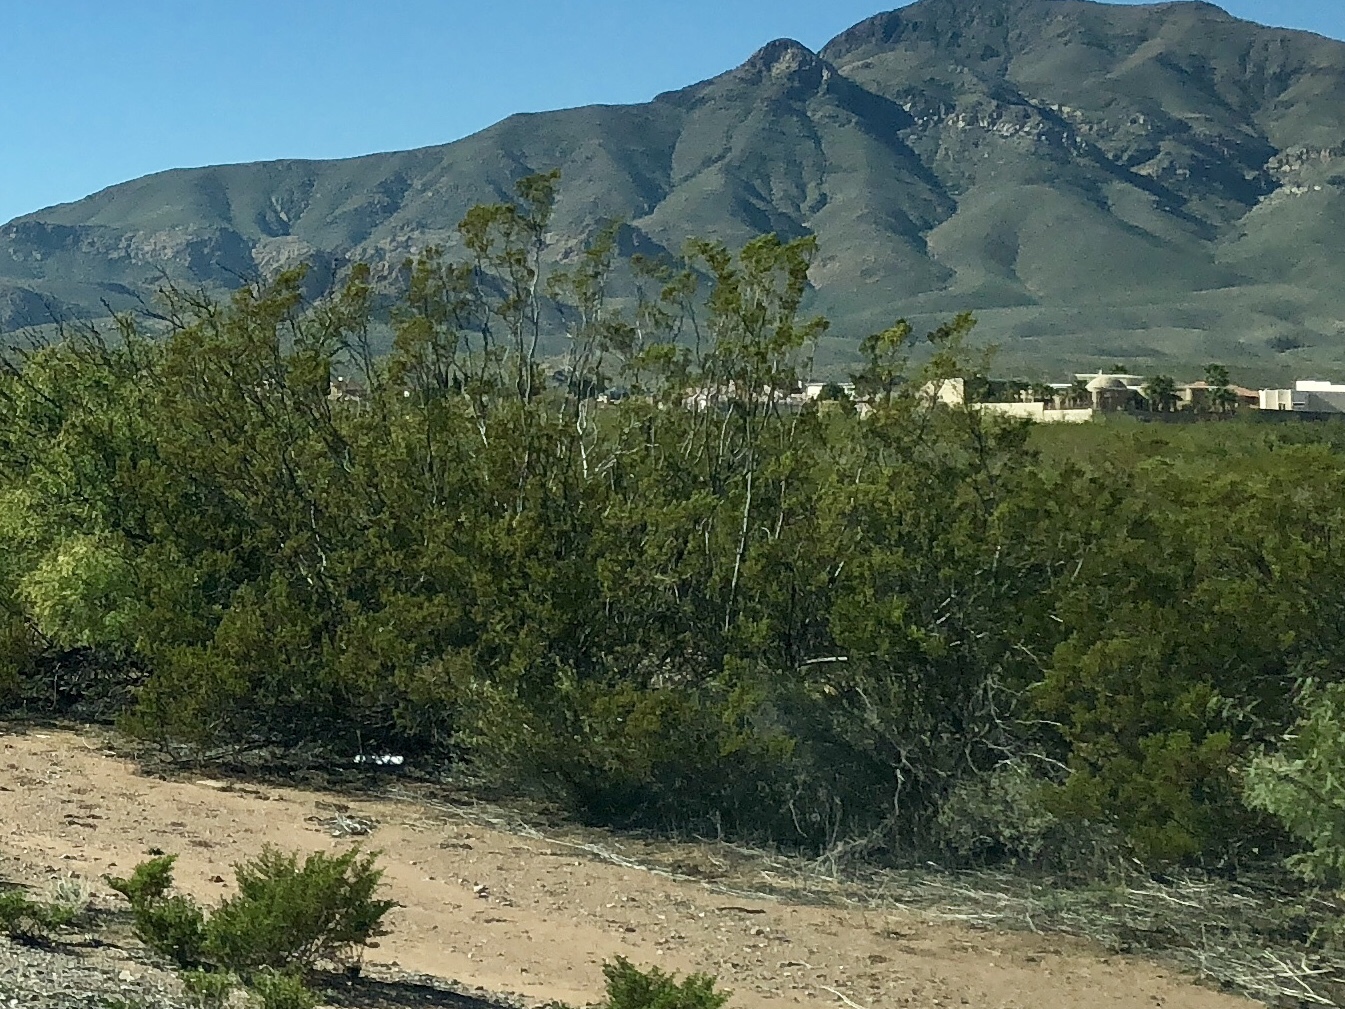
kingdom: Plantae
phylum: Tracheophyta
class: Magnoliopsida
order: Zygophyllales
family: Zygophyllaceae
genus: Larrea
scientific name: Larrea tridentata
